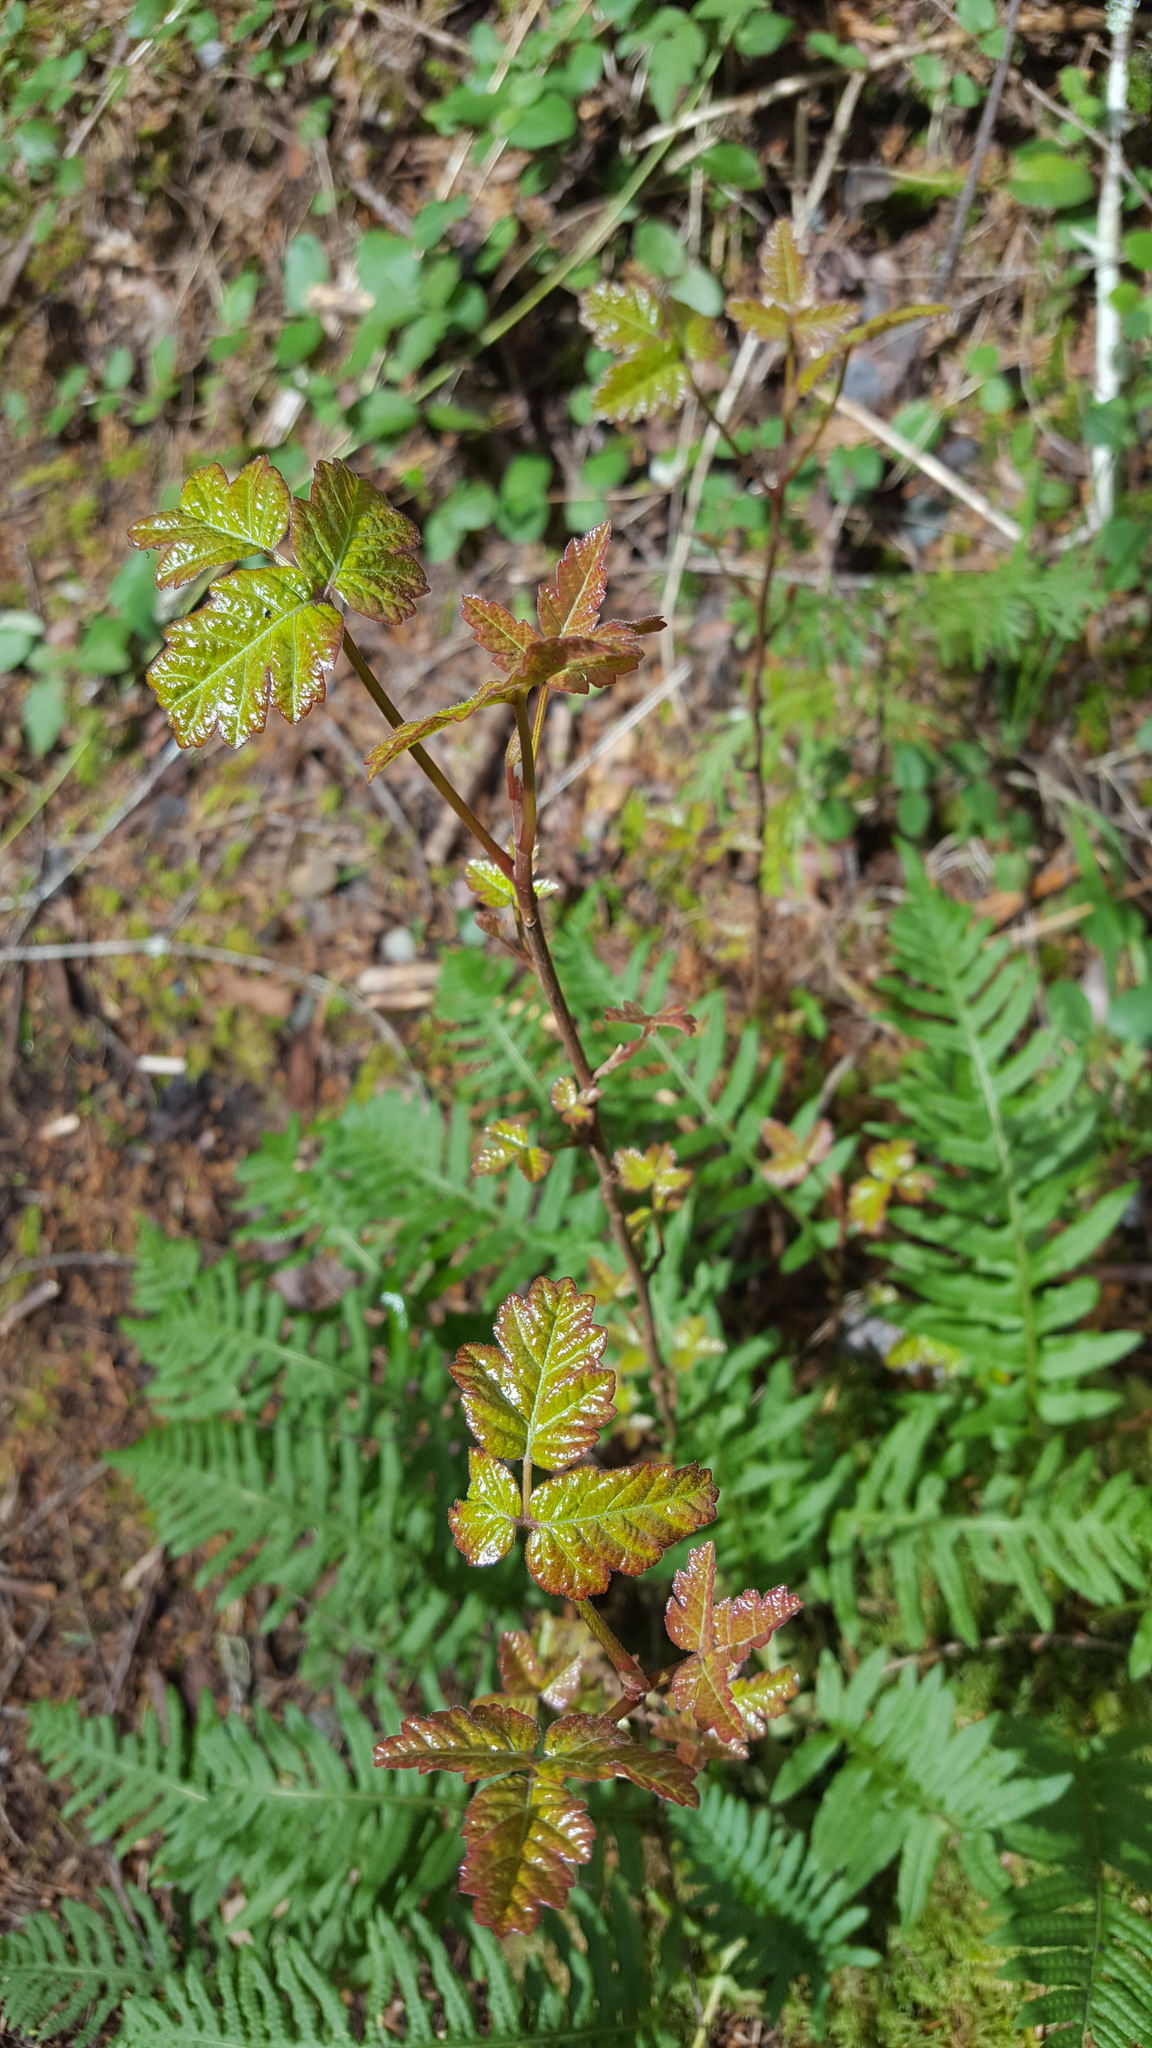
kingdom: Plantae
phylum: Tracheophyta
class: Magnoliopsida
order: Sapindales
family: Anacardiaceae
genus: Toxicodendron
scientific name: Toxicodendron diversilobum
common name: Pacific poison-oak
